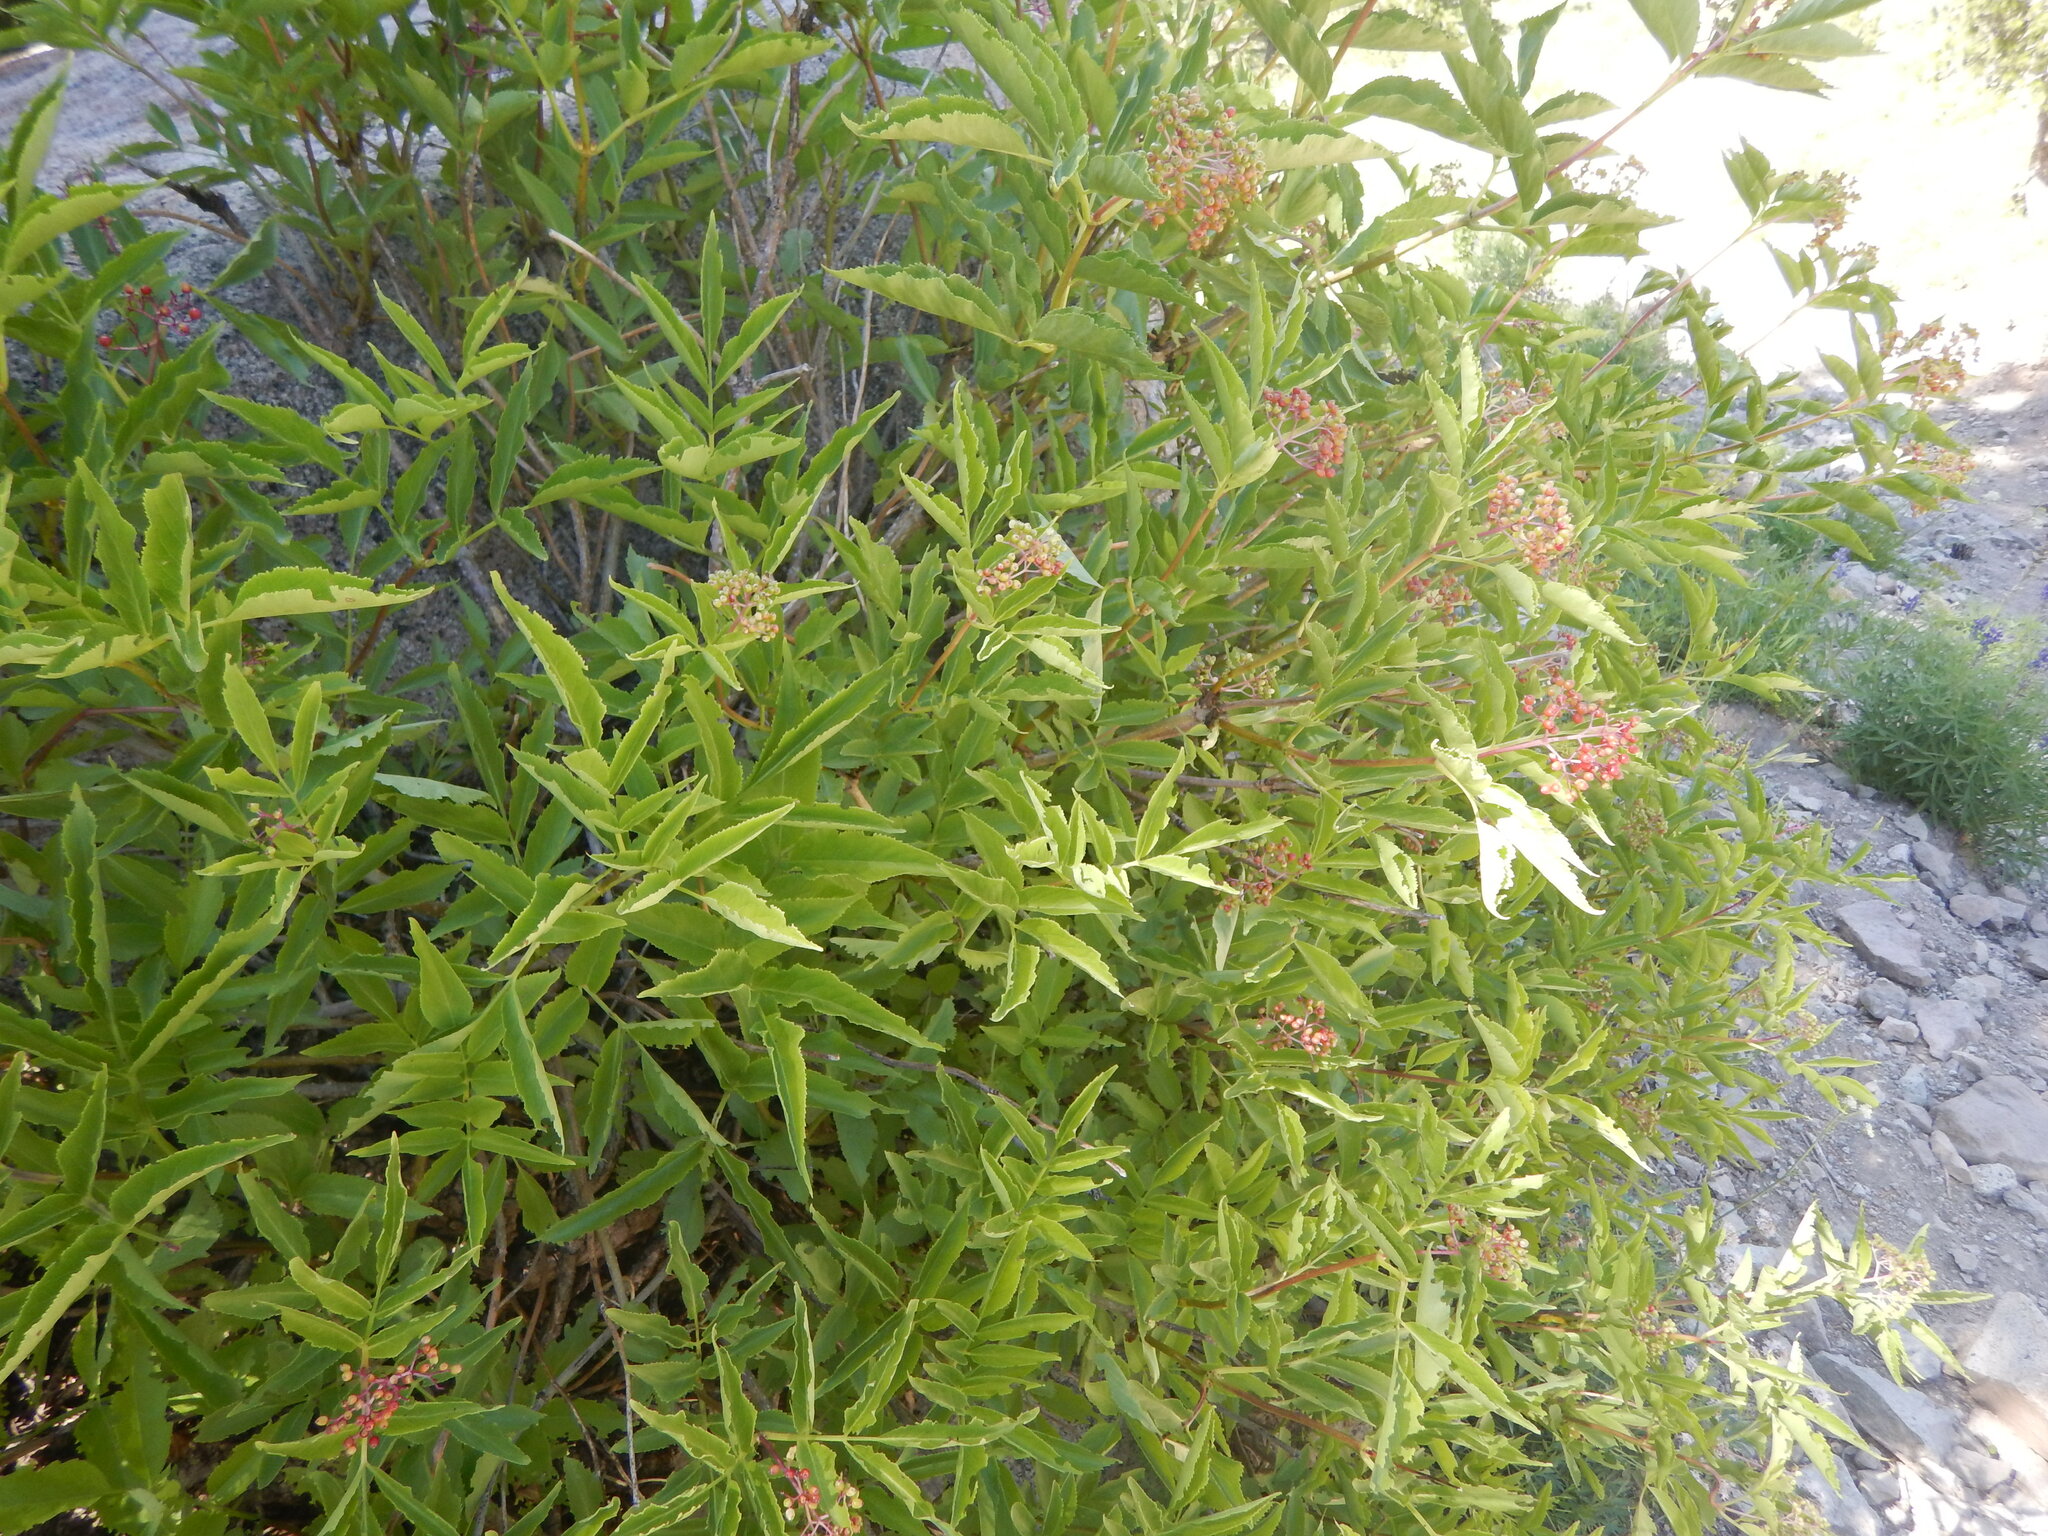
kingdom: Plantae
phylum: Tracheophyta
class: Magnoliopsida
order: Dipsacales
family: Viburnaceae
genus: Sambucus
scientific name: Sambucus racemosa
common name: Red-berried elder
